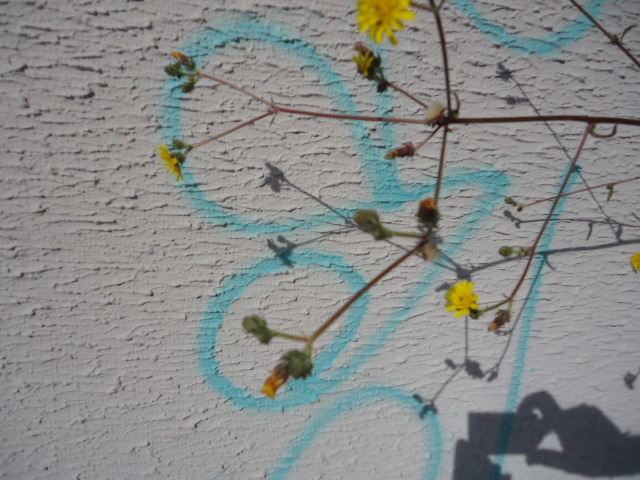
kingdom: Plantae
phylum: Tracheophyta
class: Magnoliopsida
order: Asterales
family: Asteraceae
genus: Picris
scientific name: Picris hieracioides
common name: Hawkweed oxtongue
